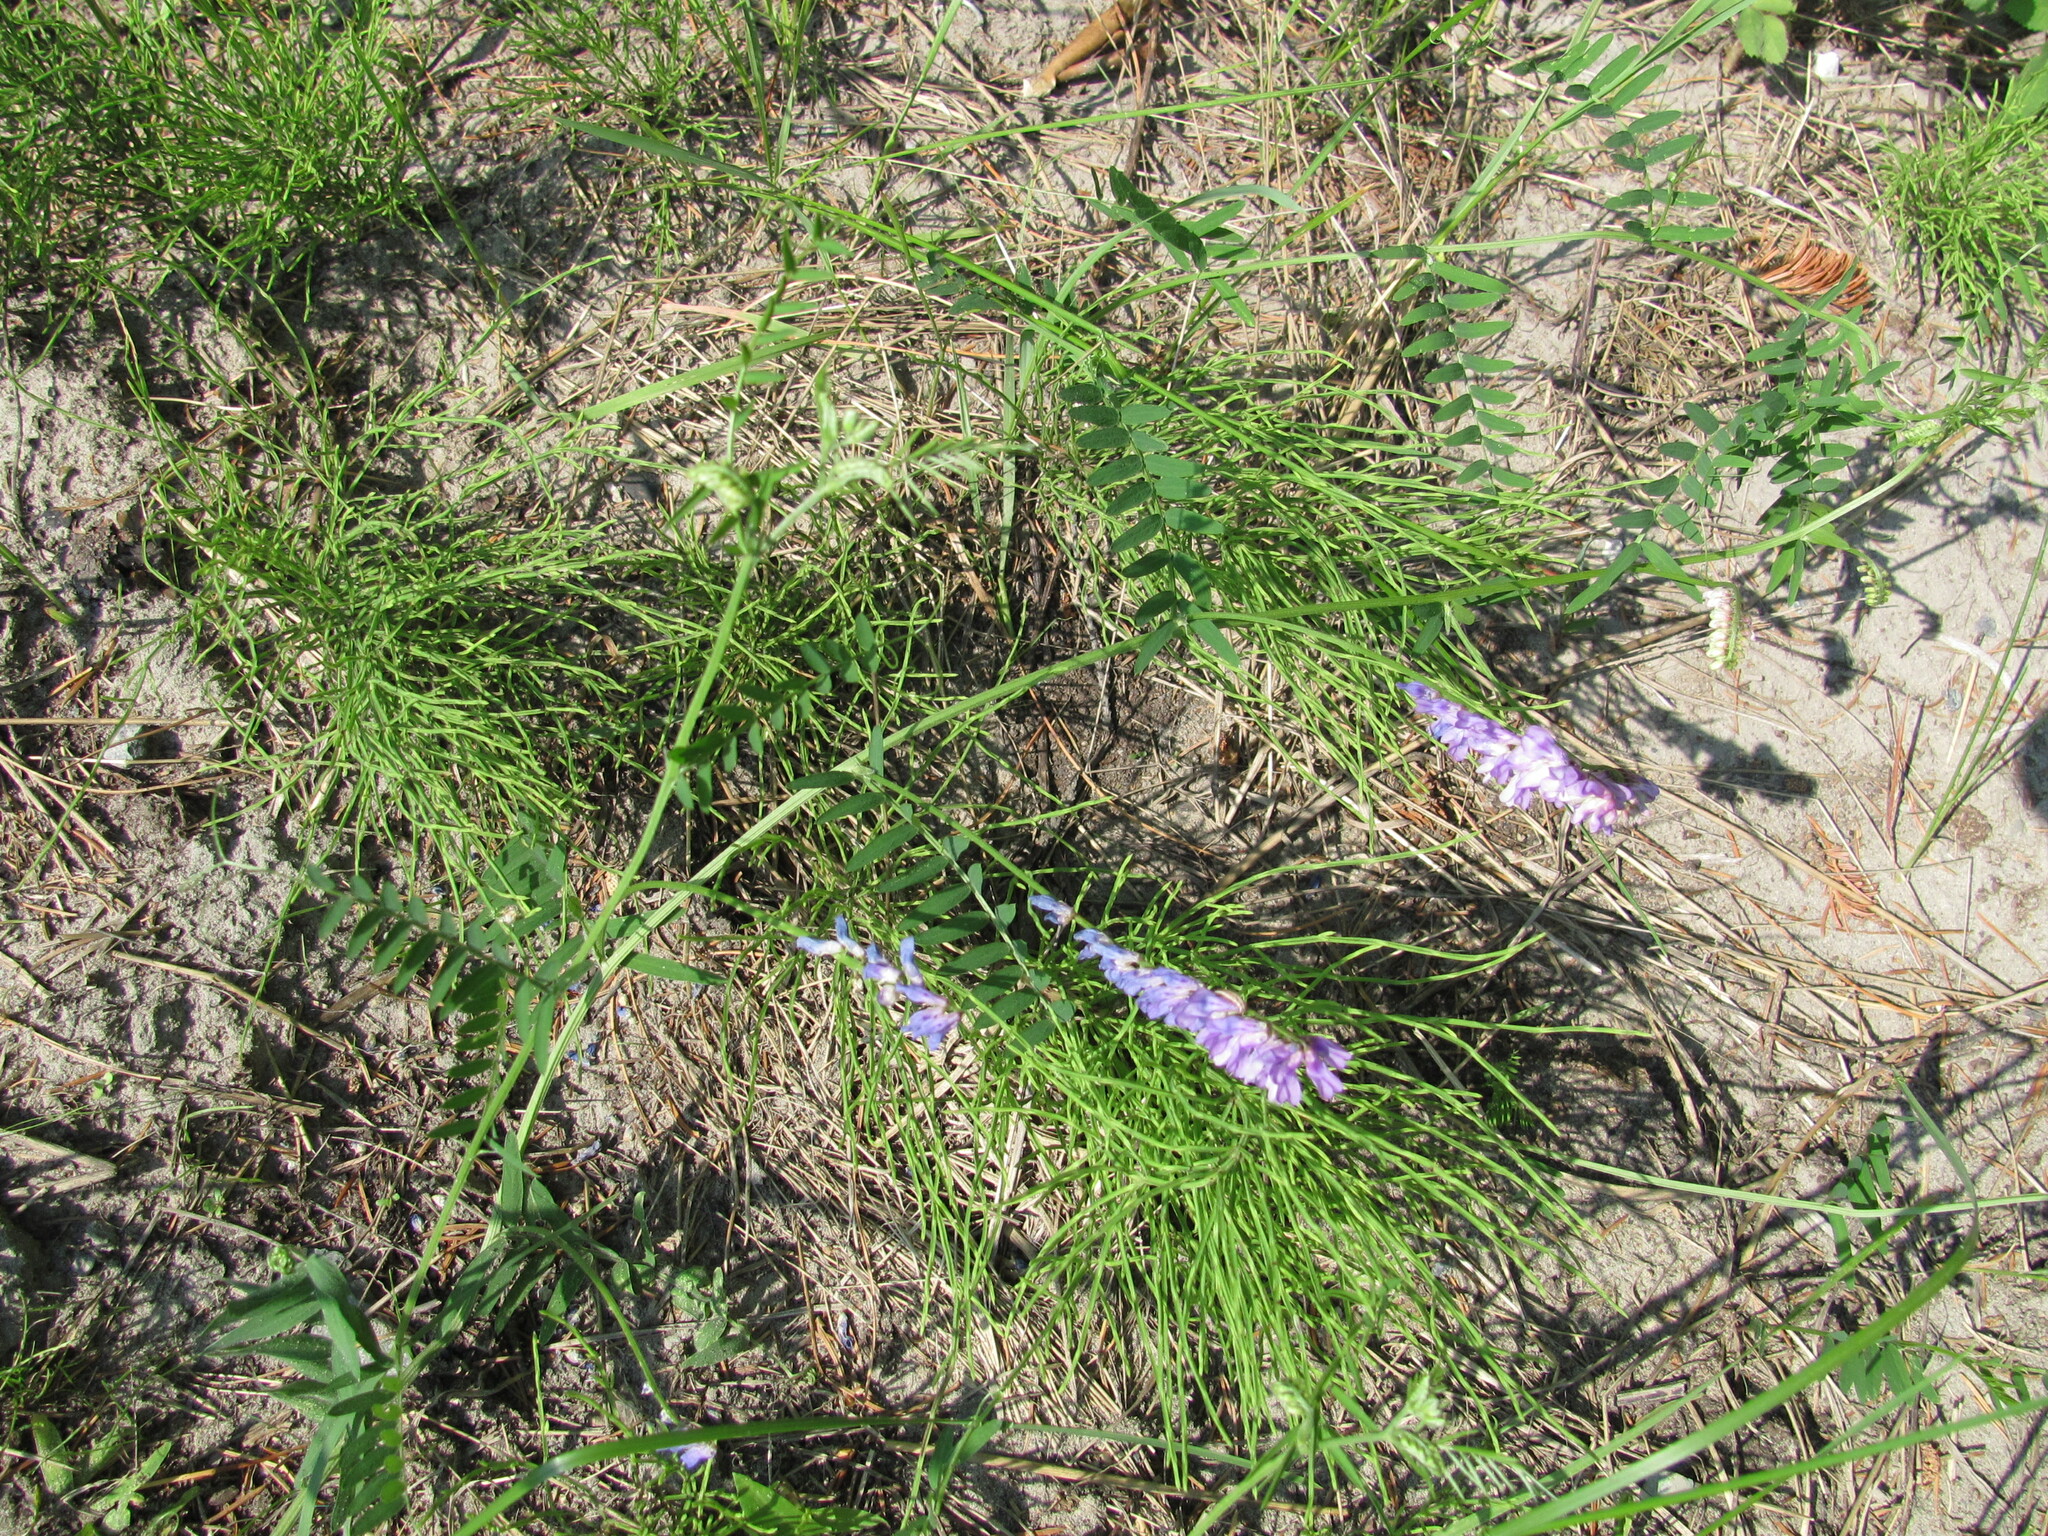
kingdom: Plantae
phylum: Tracheophyta
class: Magnoliopsida
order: Fabales
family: Fabaceae
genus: Vicia
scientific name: Vicia cracca
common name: Bird vetch
